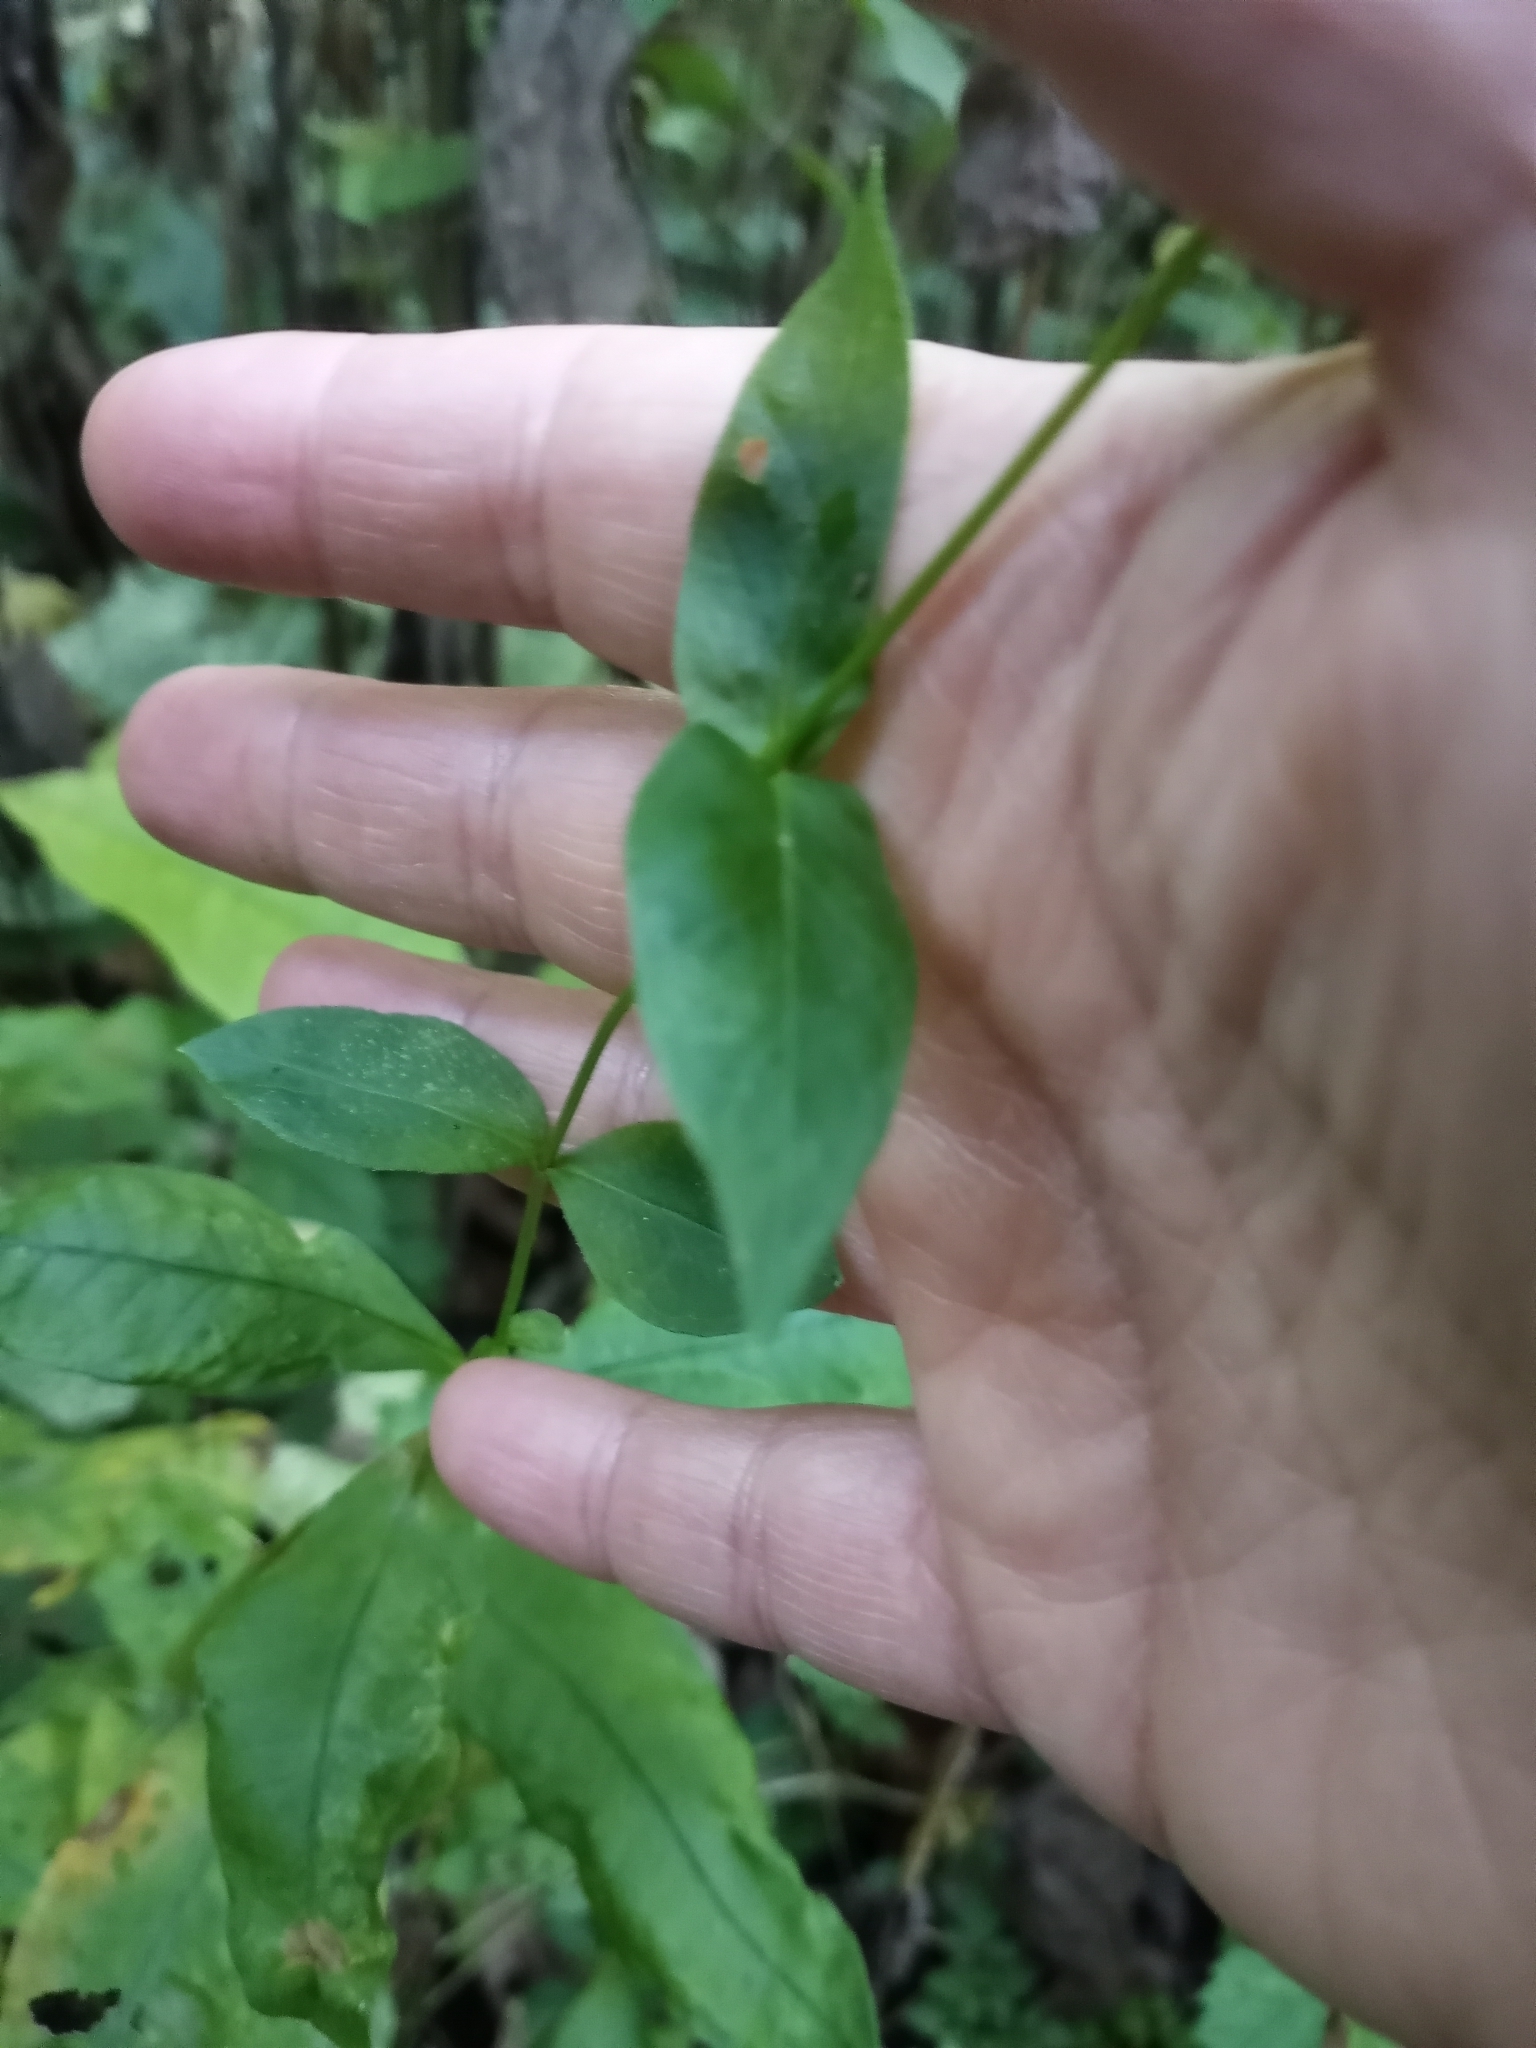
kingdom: Plantae
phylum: Tracheophyta
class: Magnoliopsida
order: Ericales
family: Polemoniaceae
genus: Phlox
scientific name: Phlox paniculata
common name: Fall phlox
